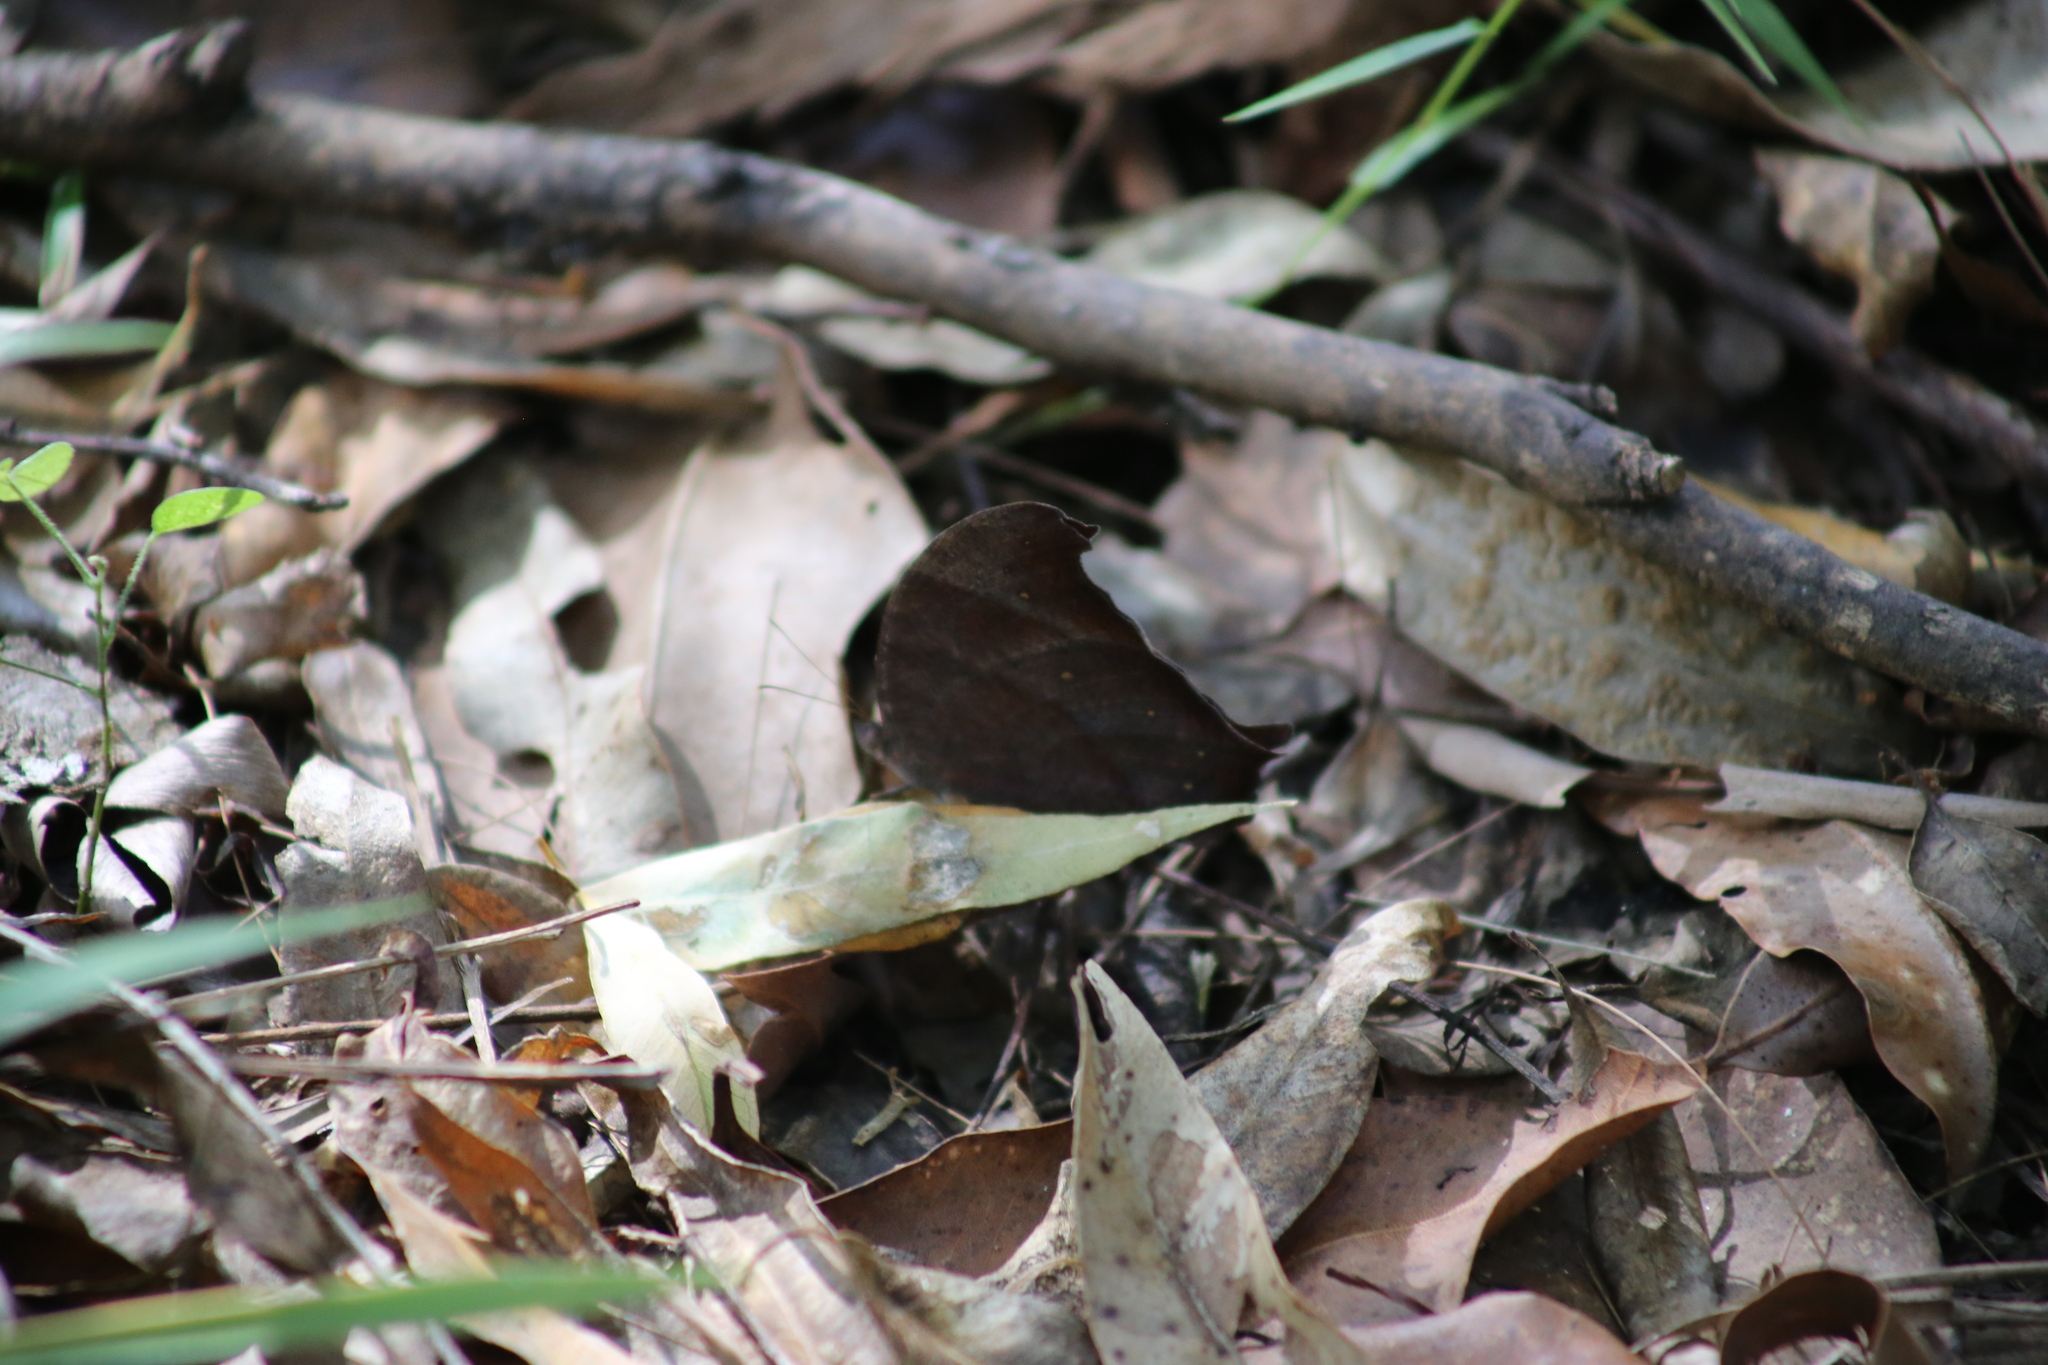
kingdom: Animalia
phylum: Arthropoda
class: Insecta
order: Lepidoptera
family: Nymphalidae
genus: Melanitis
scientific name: Melanitis leda
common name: Twilight brown
